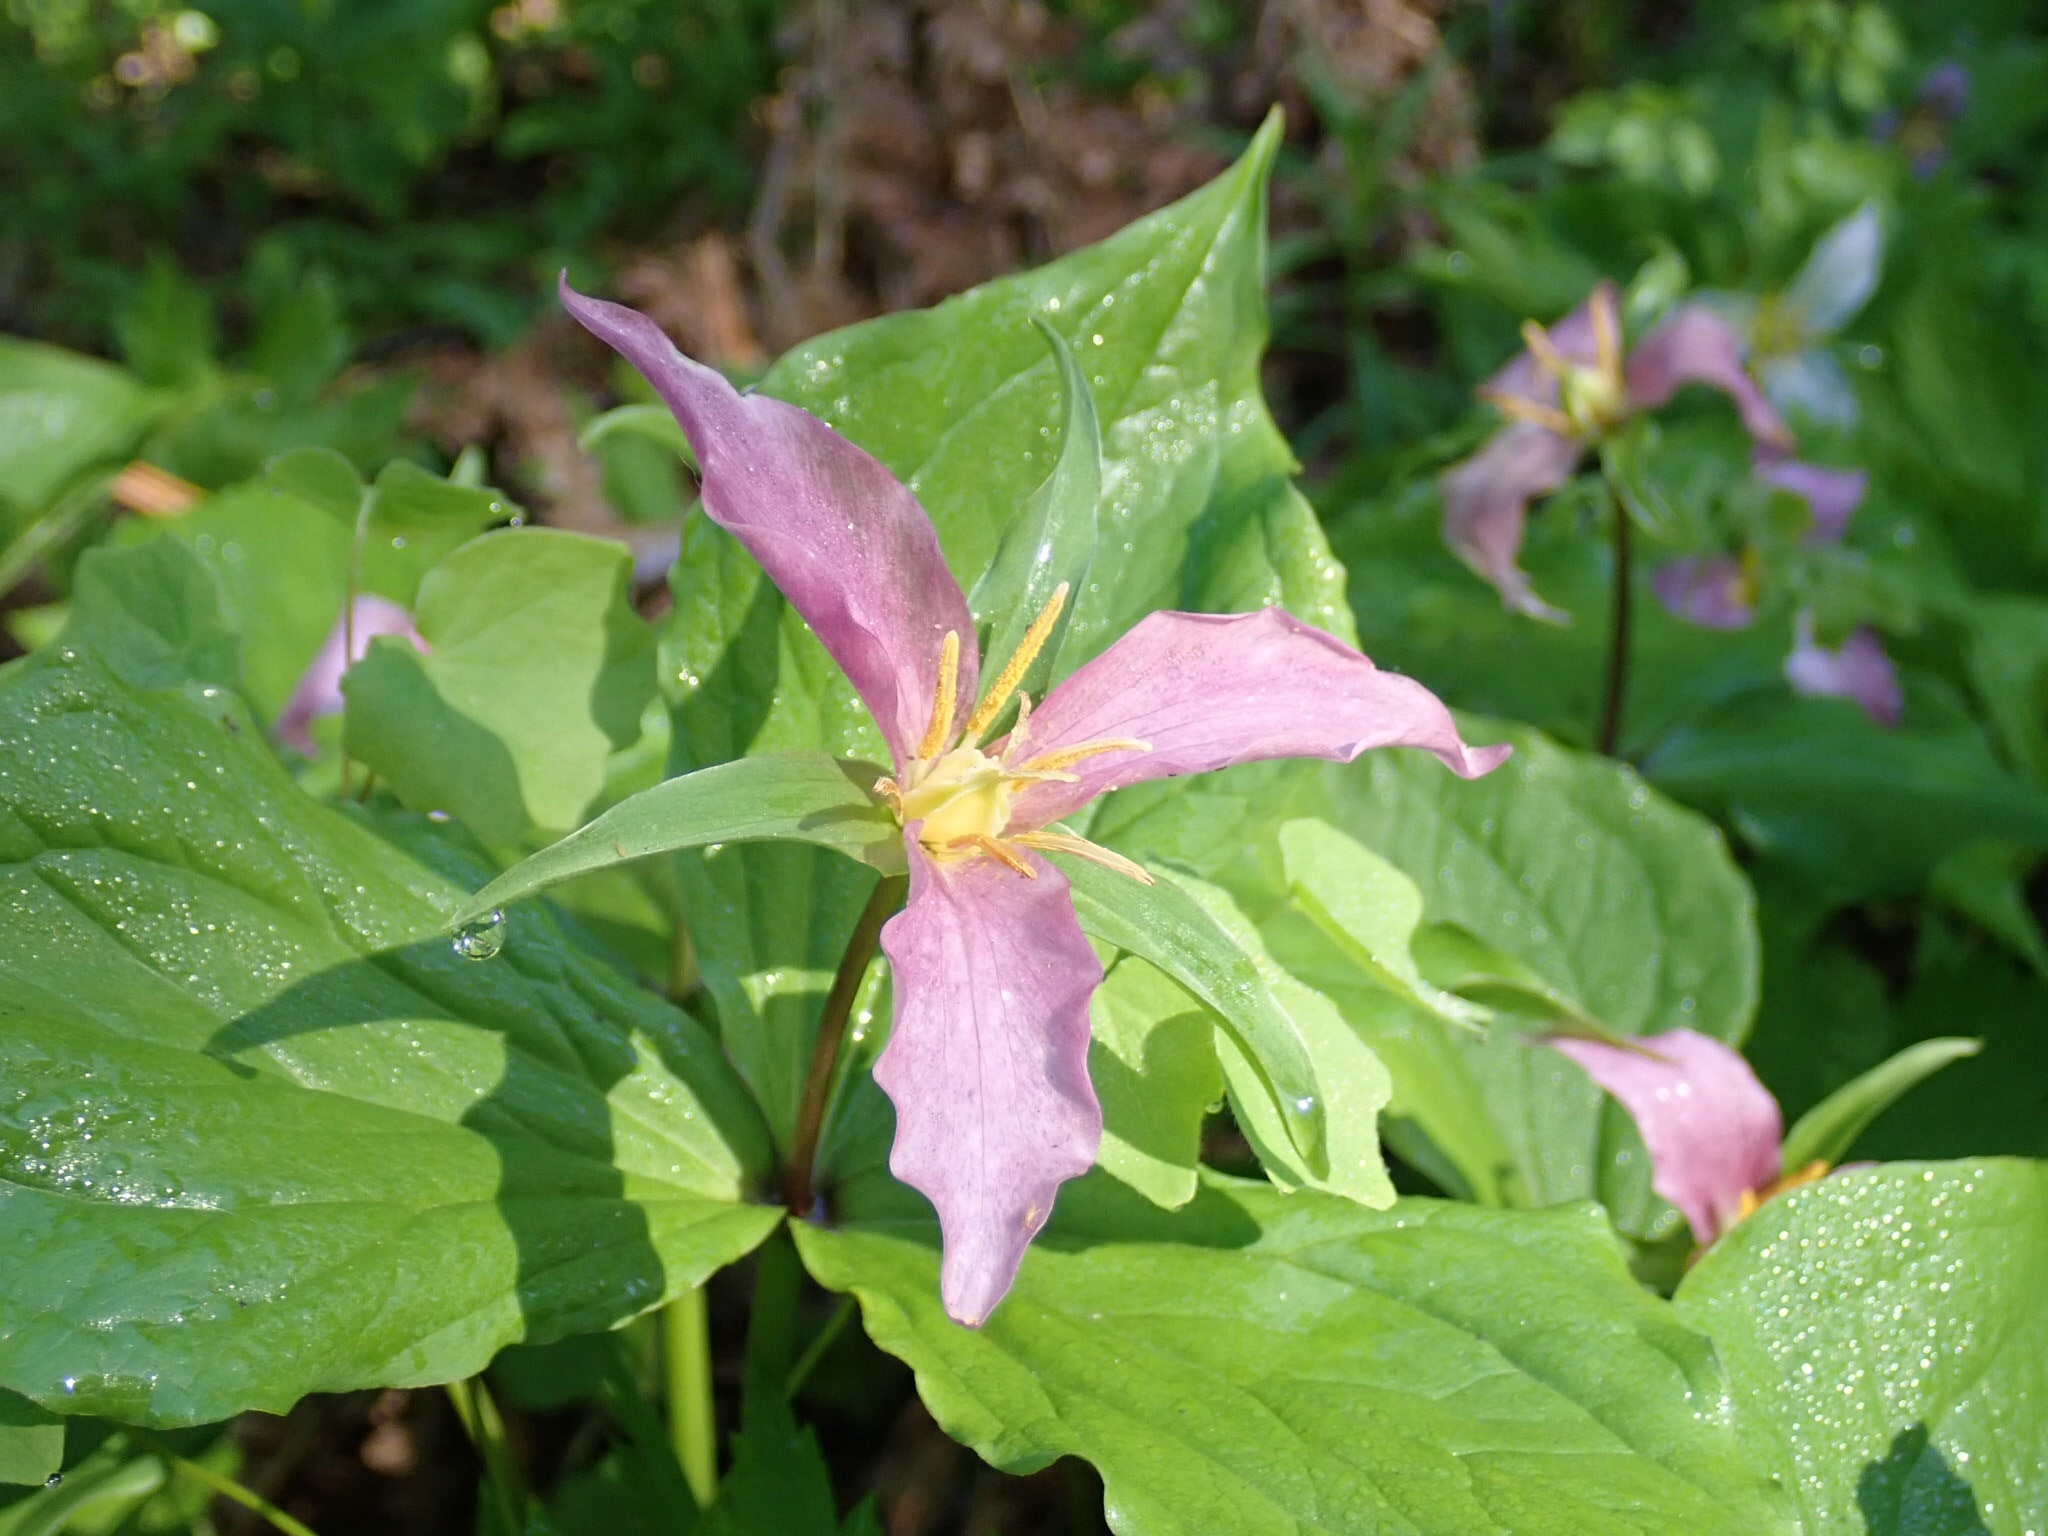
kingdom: Plantae
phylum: Tracheophyta
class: Liliopsida
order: Liliales
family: Melanthiaceae
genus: Trillium
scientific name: Trillium ovatum
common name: Pacific trillium
